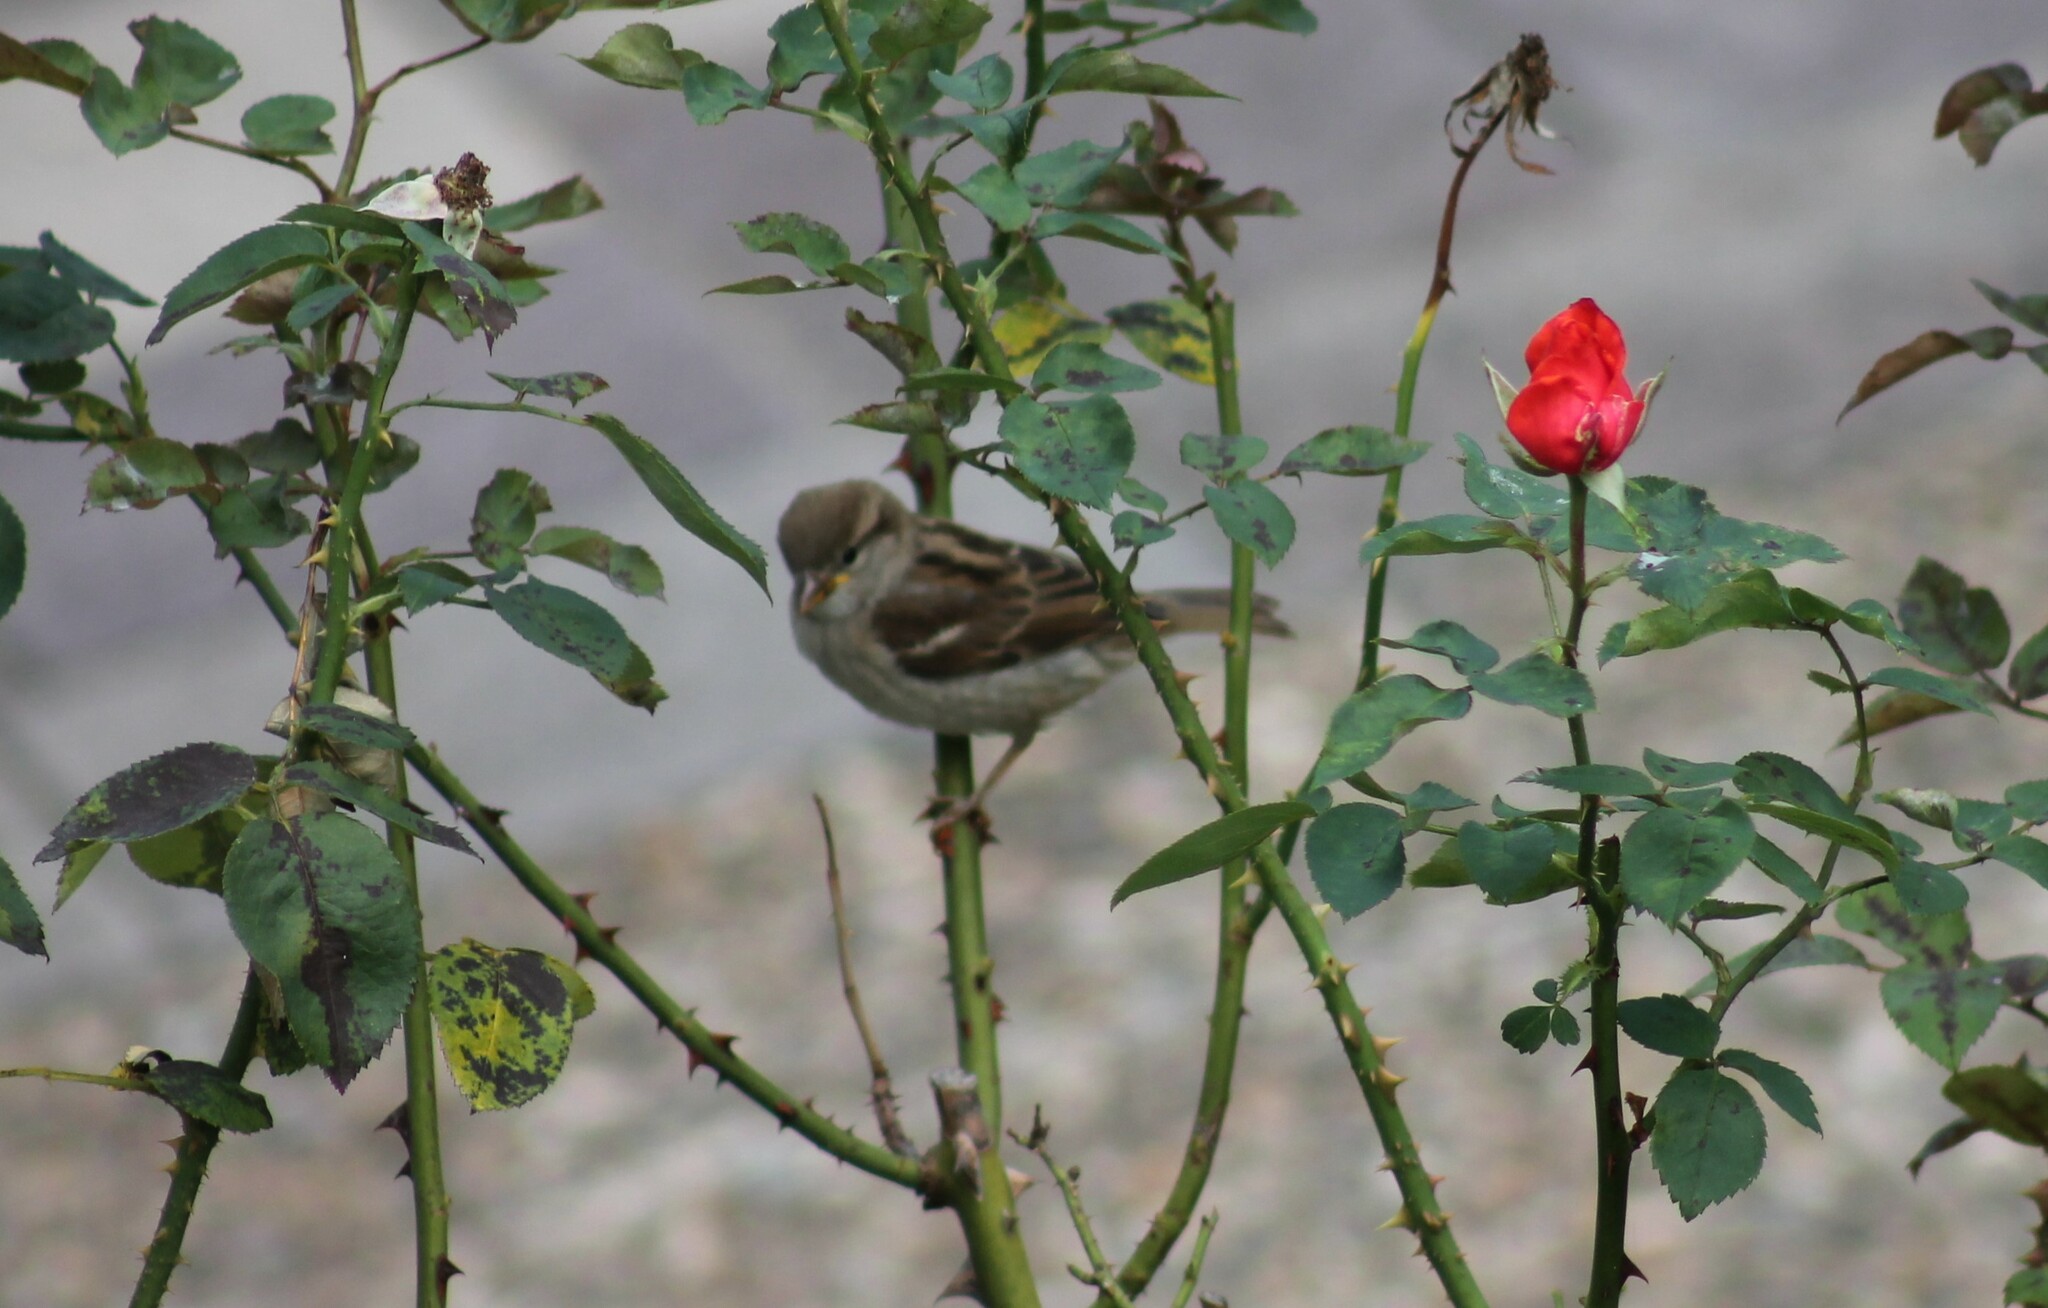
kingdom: Animalia
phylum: Chordata
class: Aves
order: Passeriformes
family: Passeridae
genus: Passer
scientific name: Passer domesticus
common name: House sparrow
